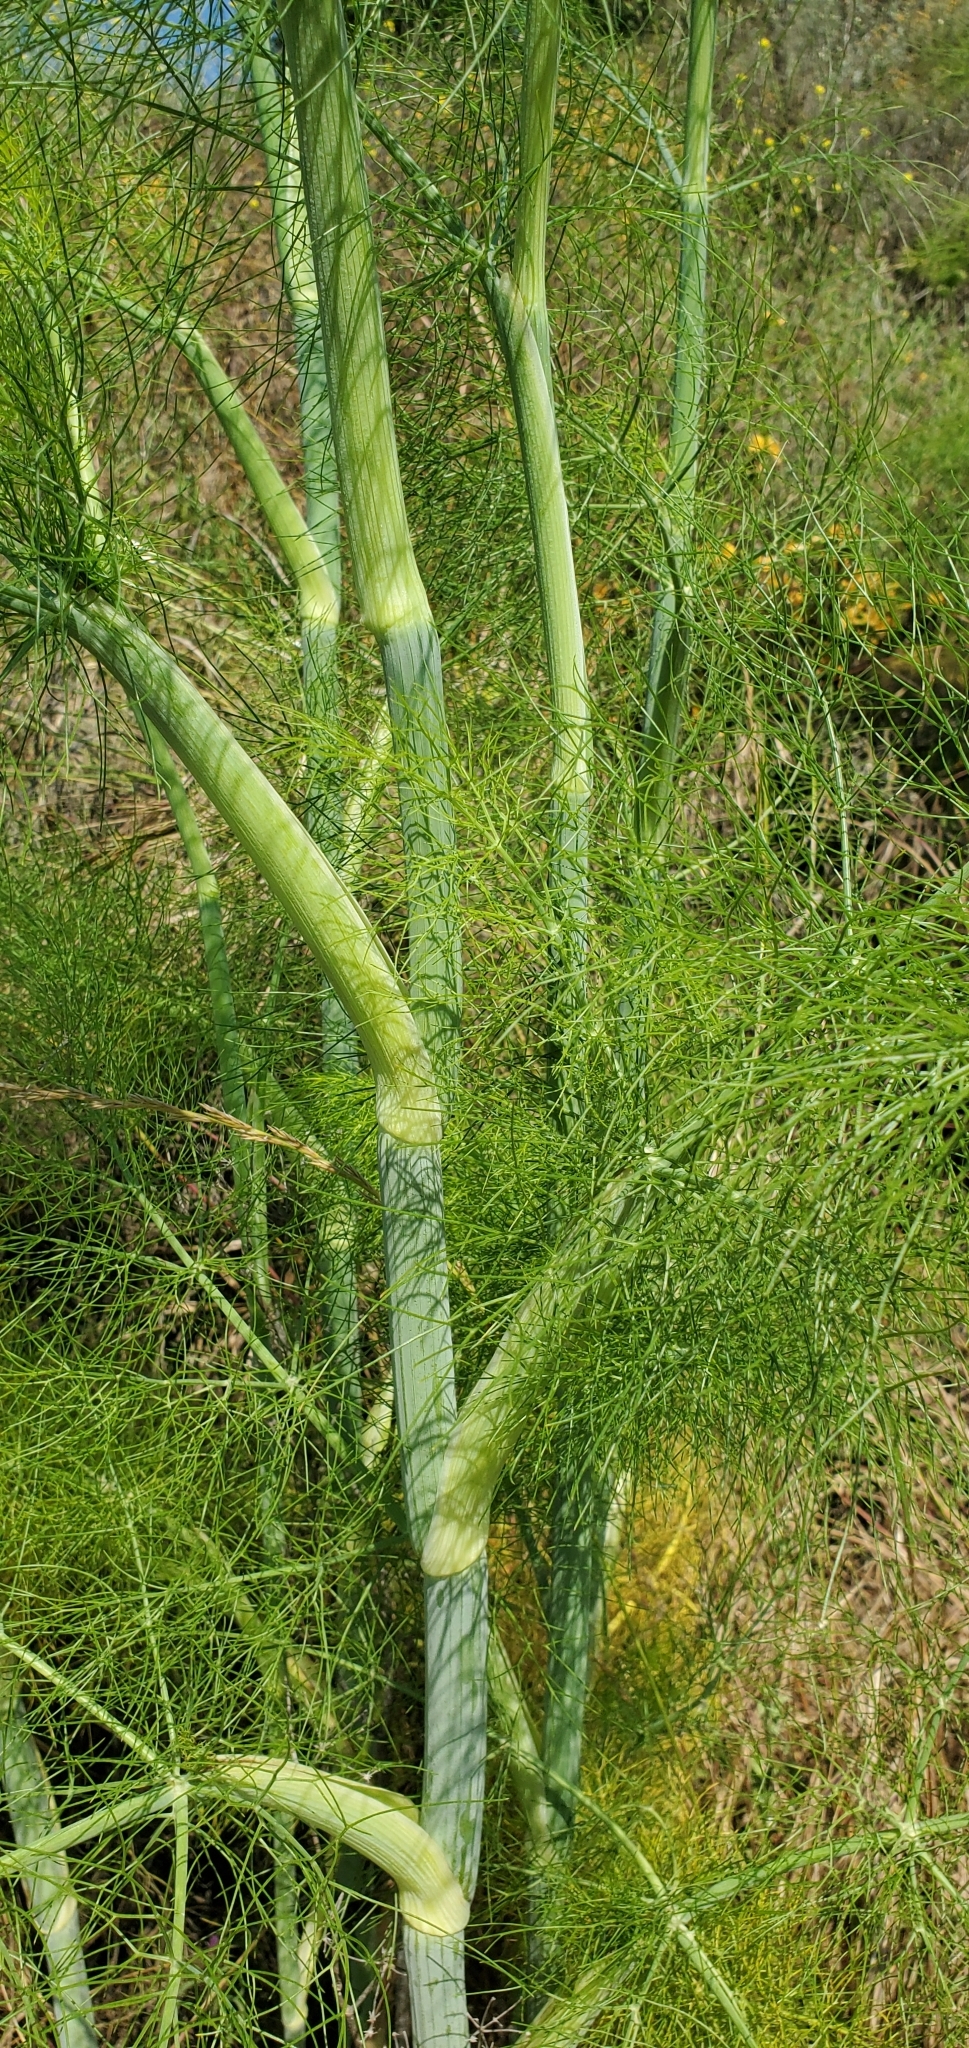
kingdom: Plantae
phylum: Tracheophyta
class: Magnoliopsida
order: Apiales
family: Apiaceae
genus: Foeniculum
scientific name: Foeniculum vulgare
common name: Fennel
